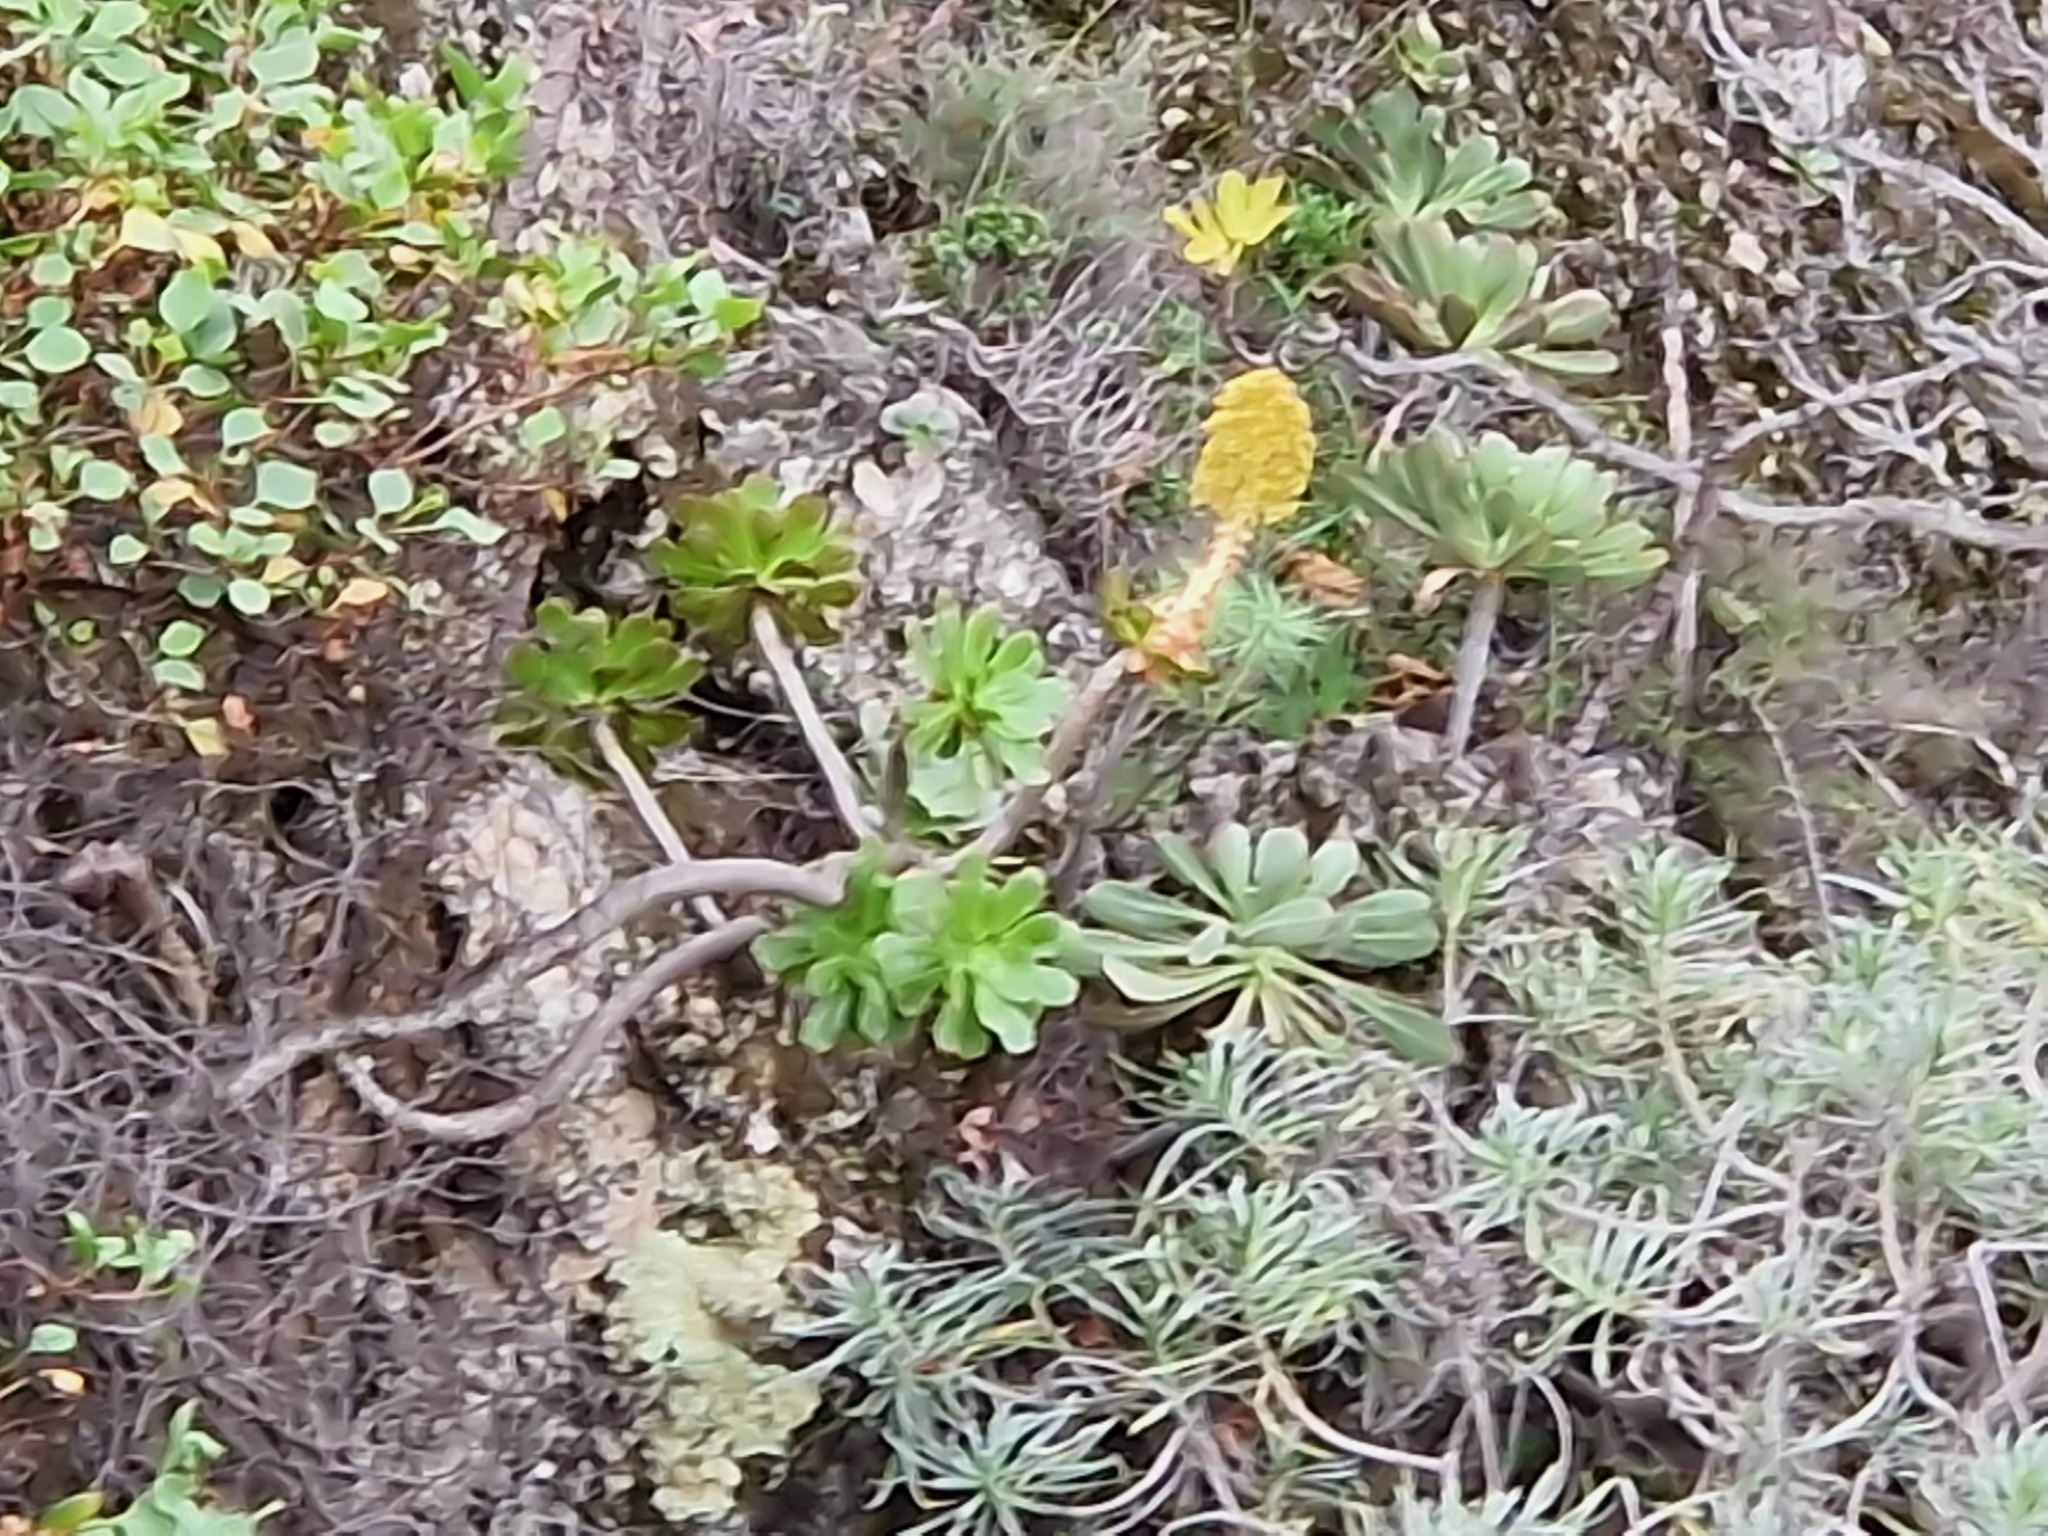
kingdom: Plantae
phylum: Tracheophyta
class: Magnoliopsida
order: Saxifragales
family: Crassulaceae
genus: Aeonium
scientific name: Aeonium arboreum
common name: Tree aeonium
